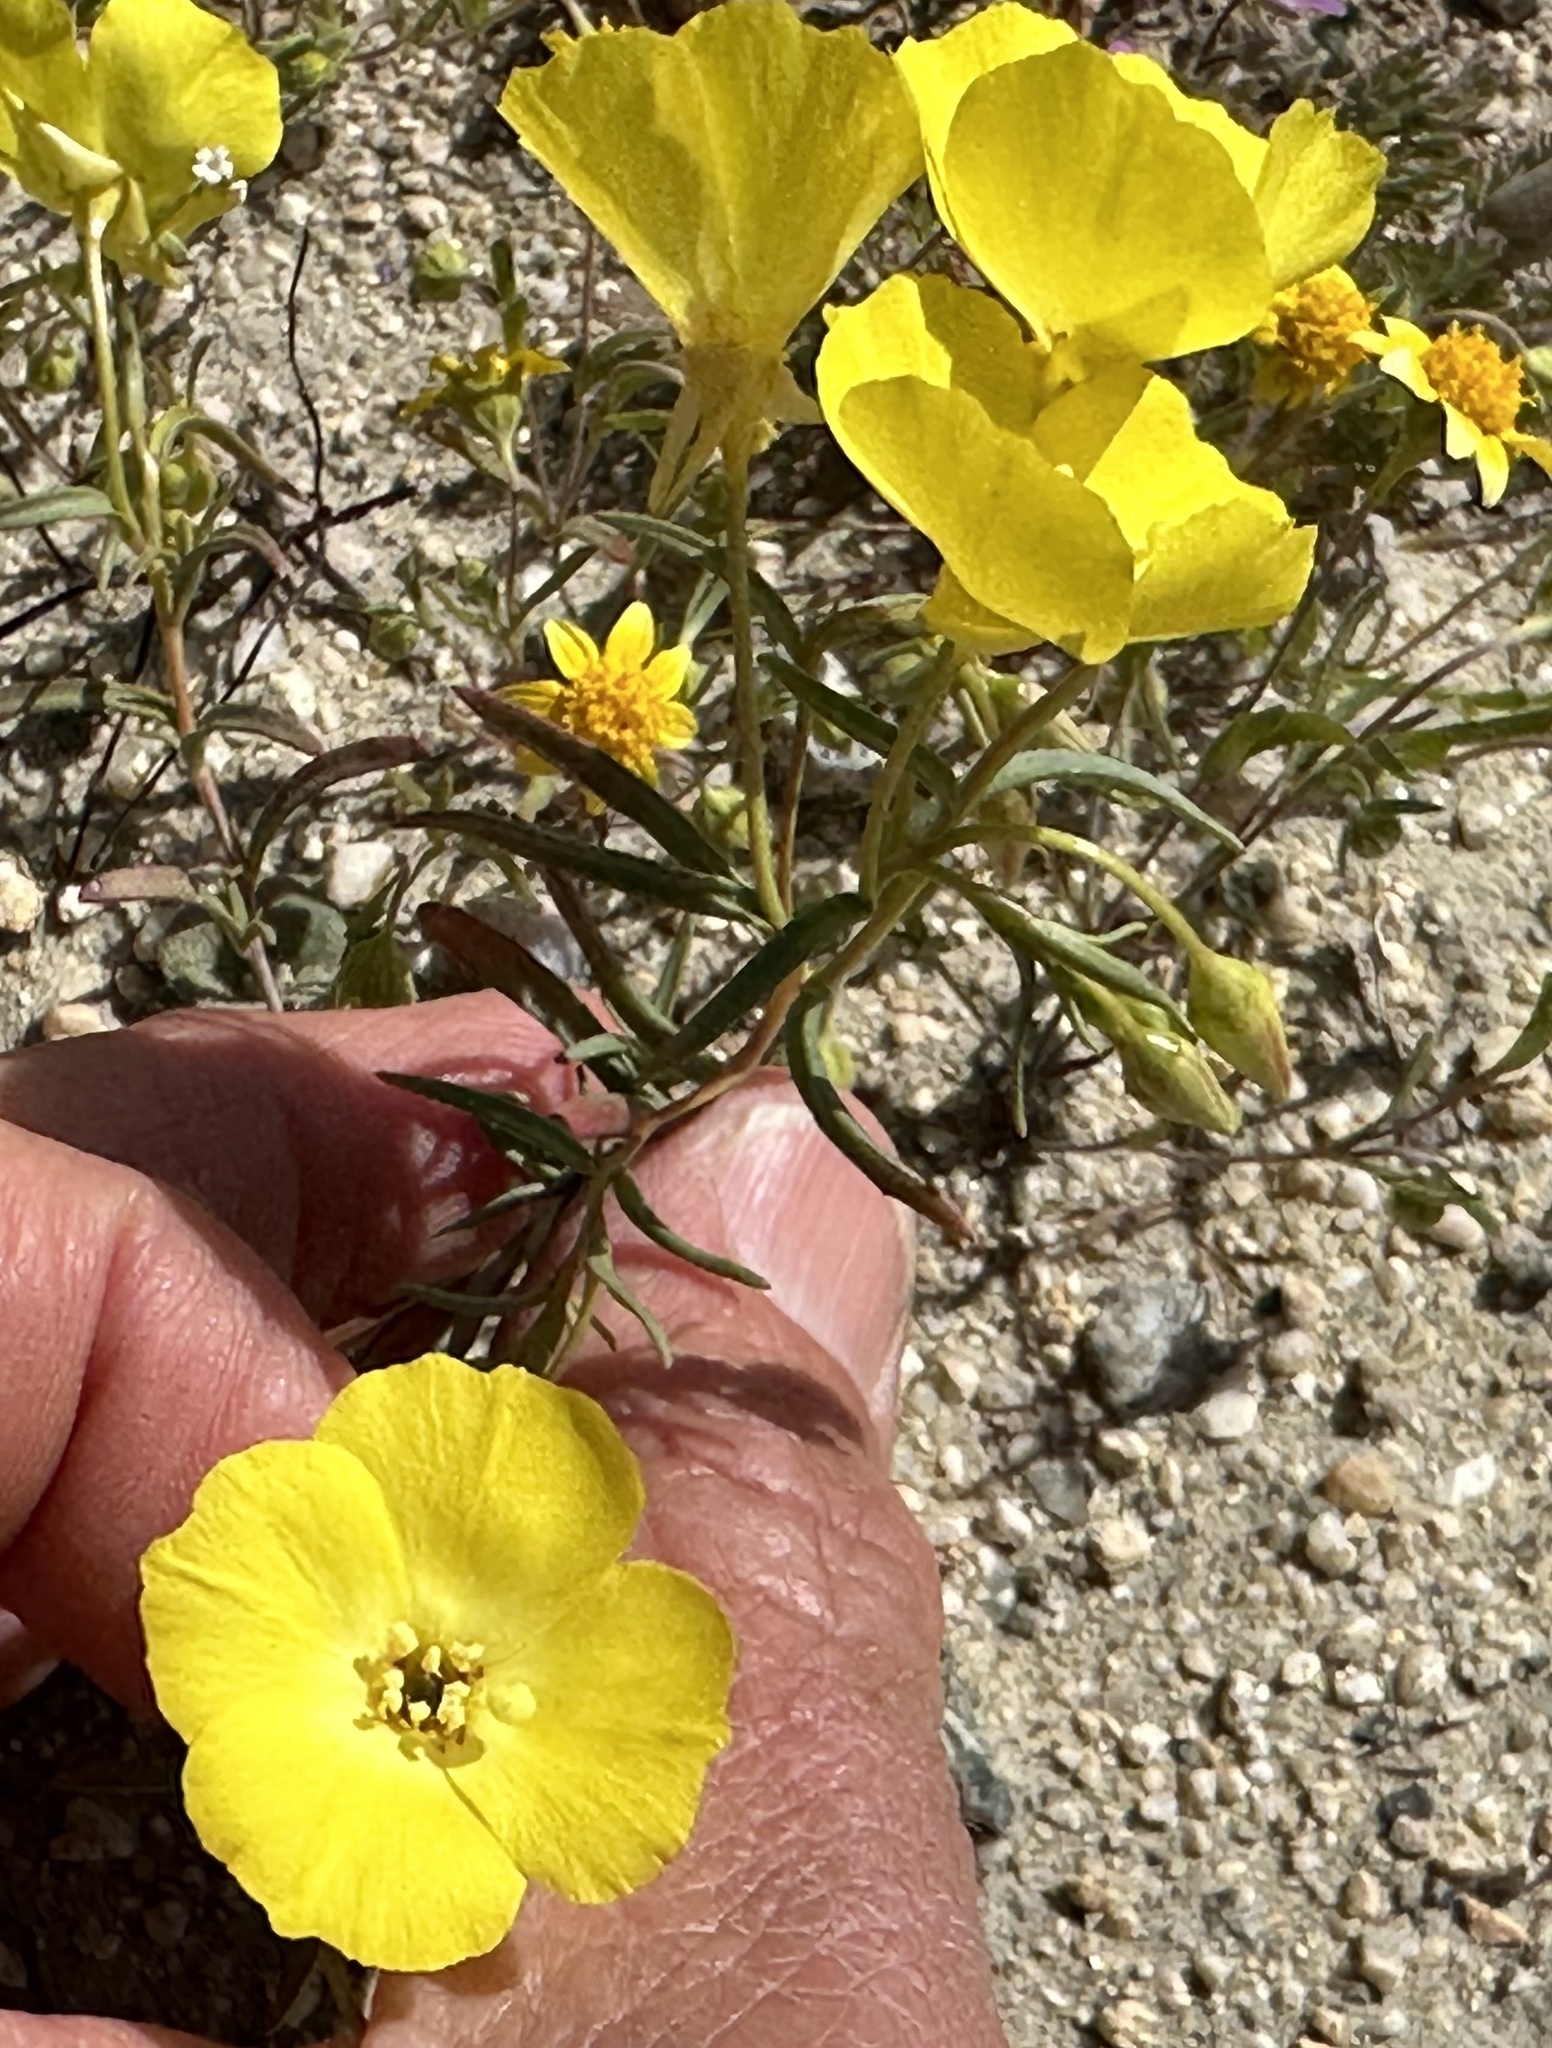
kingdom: Plantae
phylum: Tracheophyta
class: Magnoliopsida
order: Myrtales
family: Onagraceae
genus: Camissonia
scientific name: Camissonia campestris
